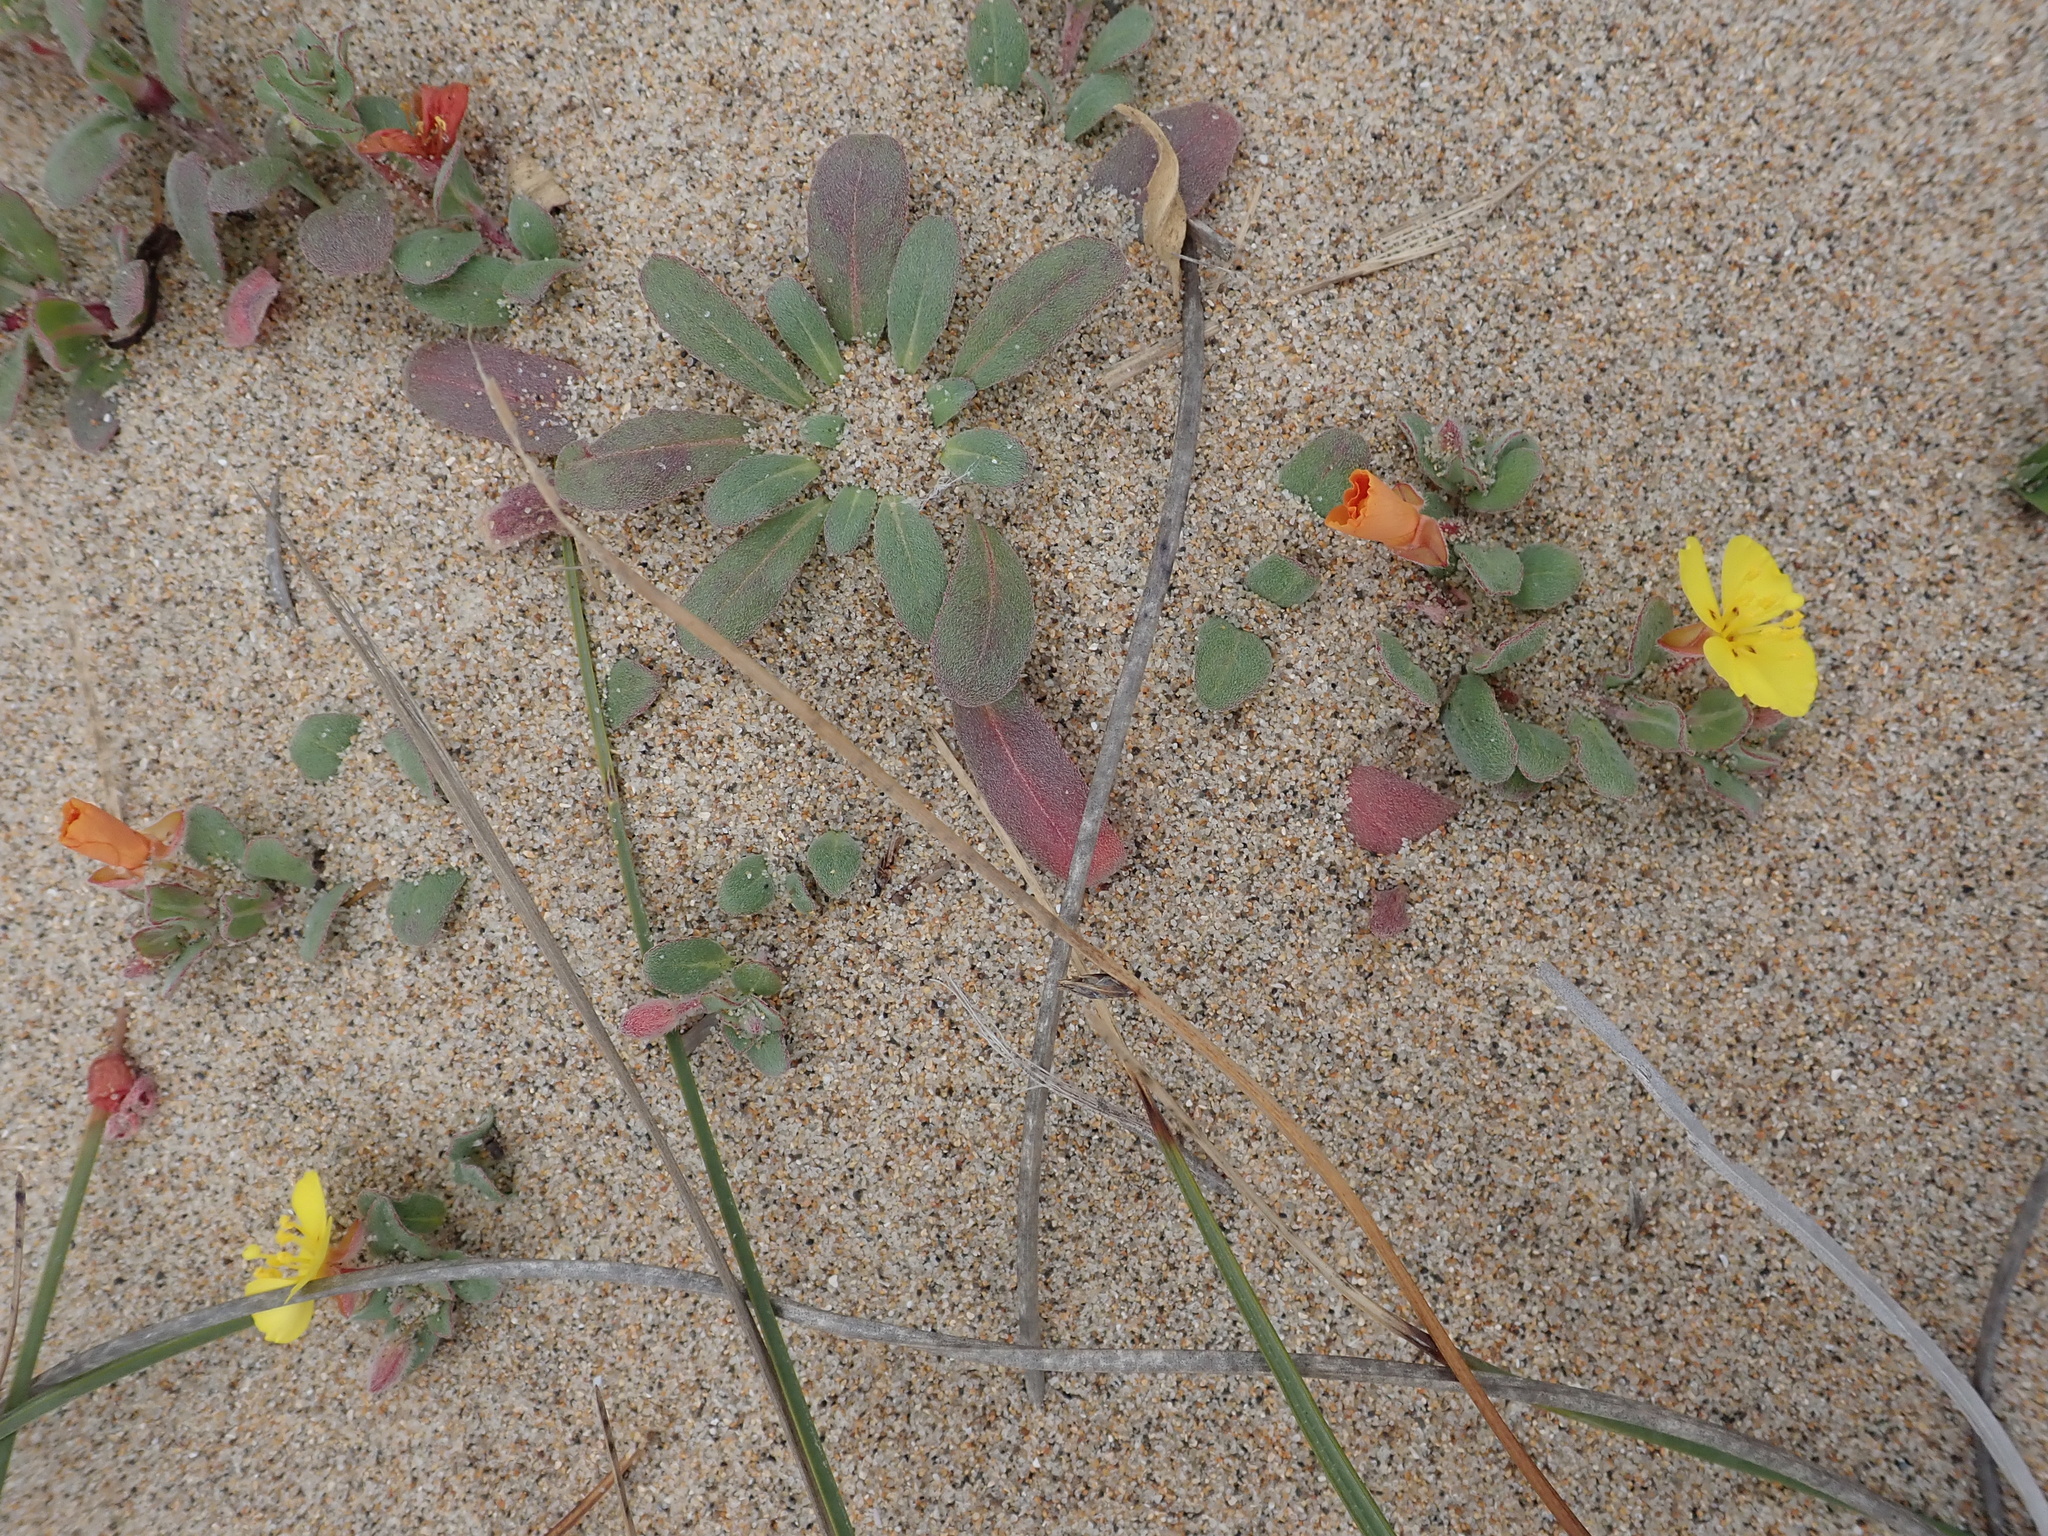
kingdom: Plantae
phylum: Tracheophyta
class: Magnoliopsida
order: Myrtales
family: Onagraceae
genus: Camissoniopsis
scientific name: Camissoniopsis cheiranthifolia
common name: Beach suncup
